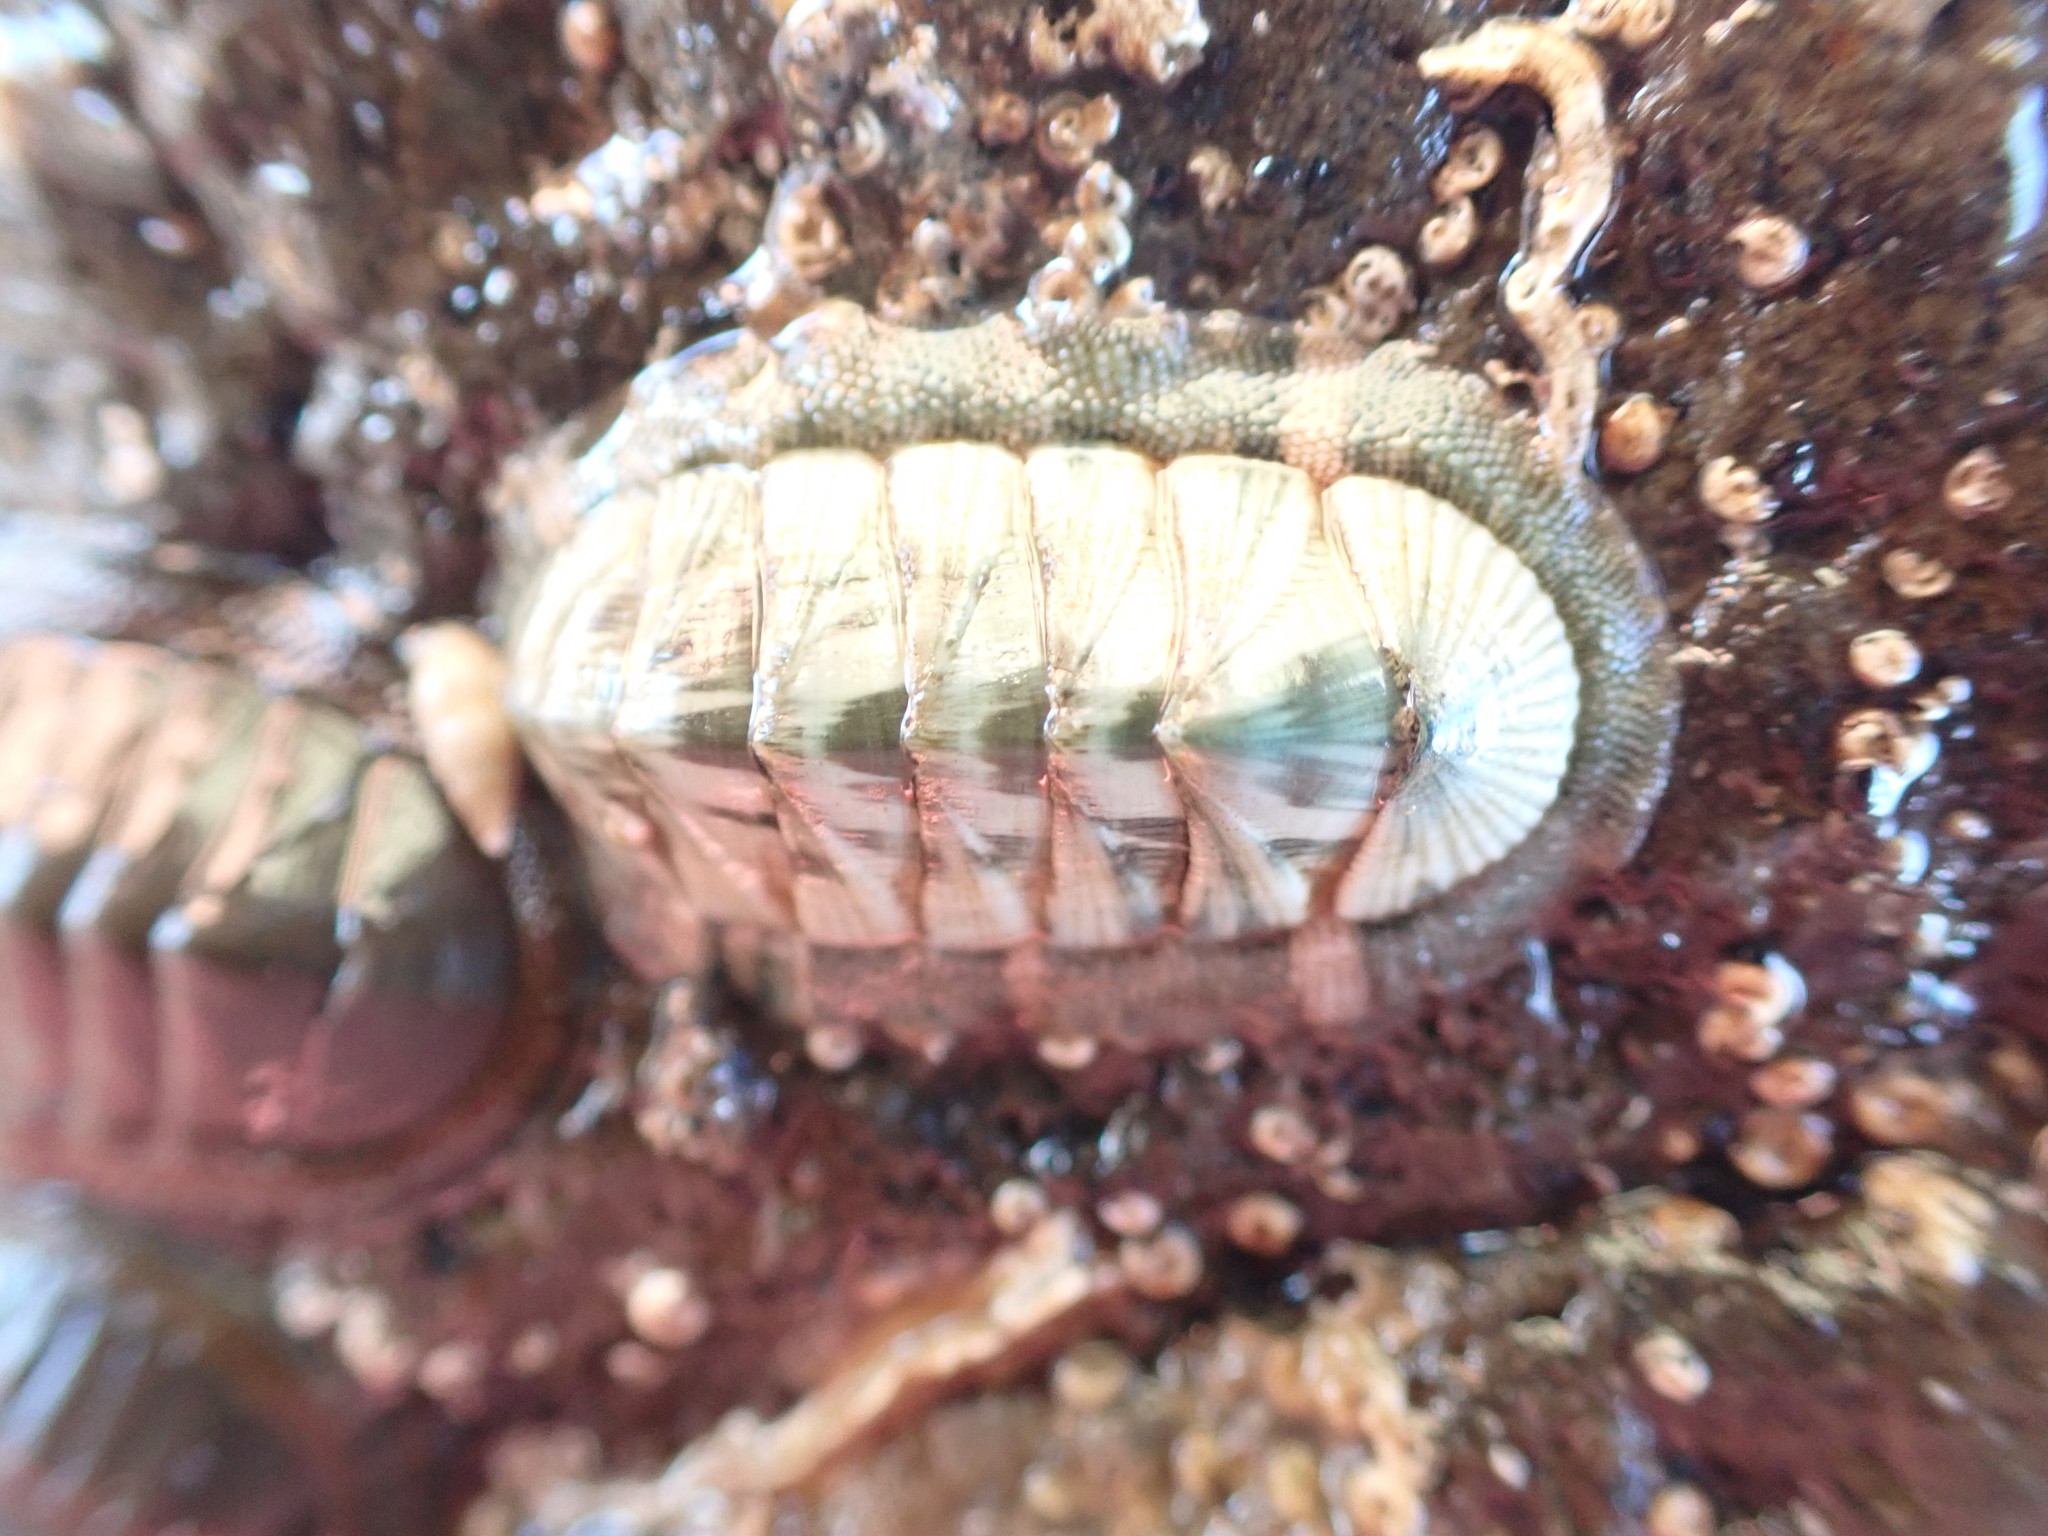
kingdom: Animalia
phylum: Mollusca
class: Polyplacophora
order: Chitonida
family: Chitonidae
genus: Rhyssoplax
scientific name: Rhyssoplax aerea
